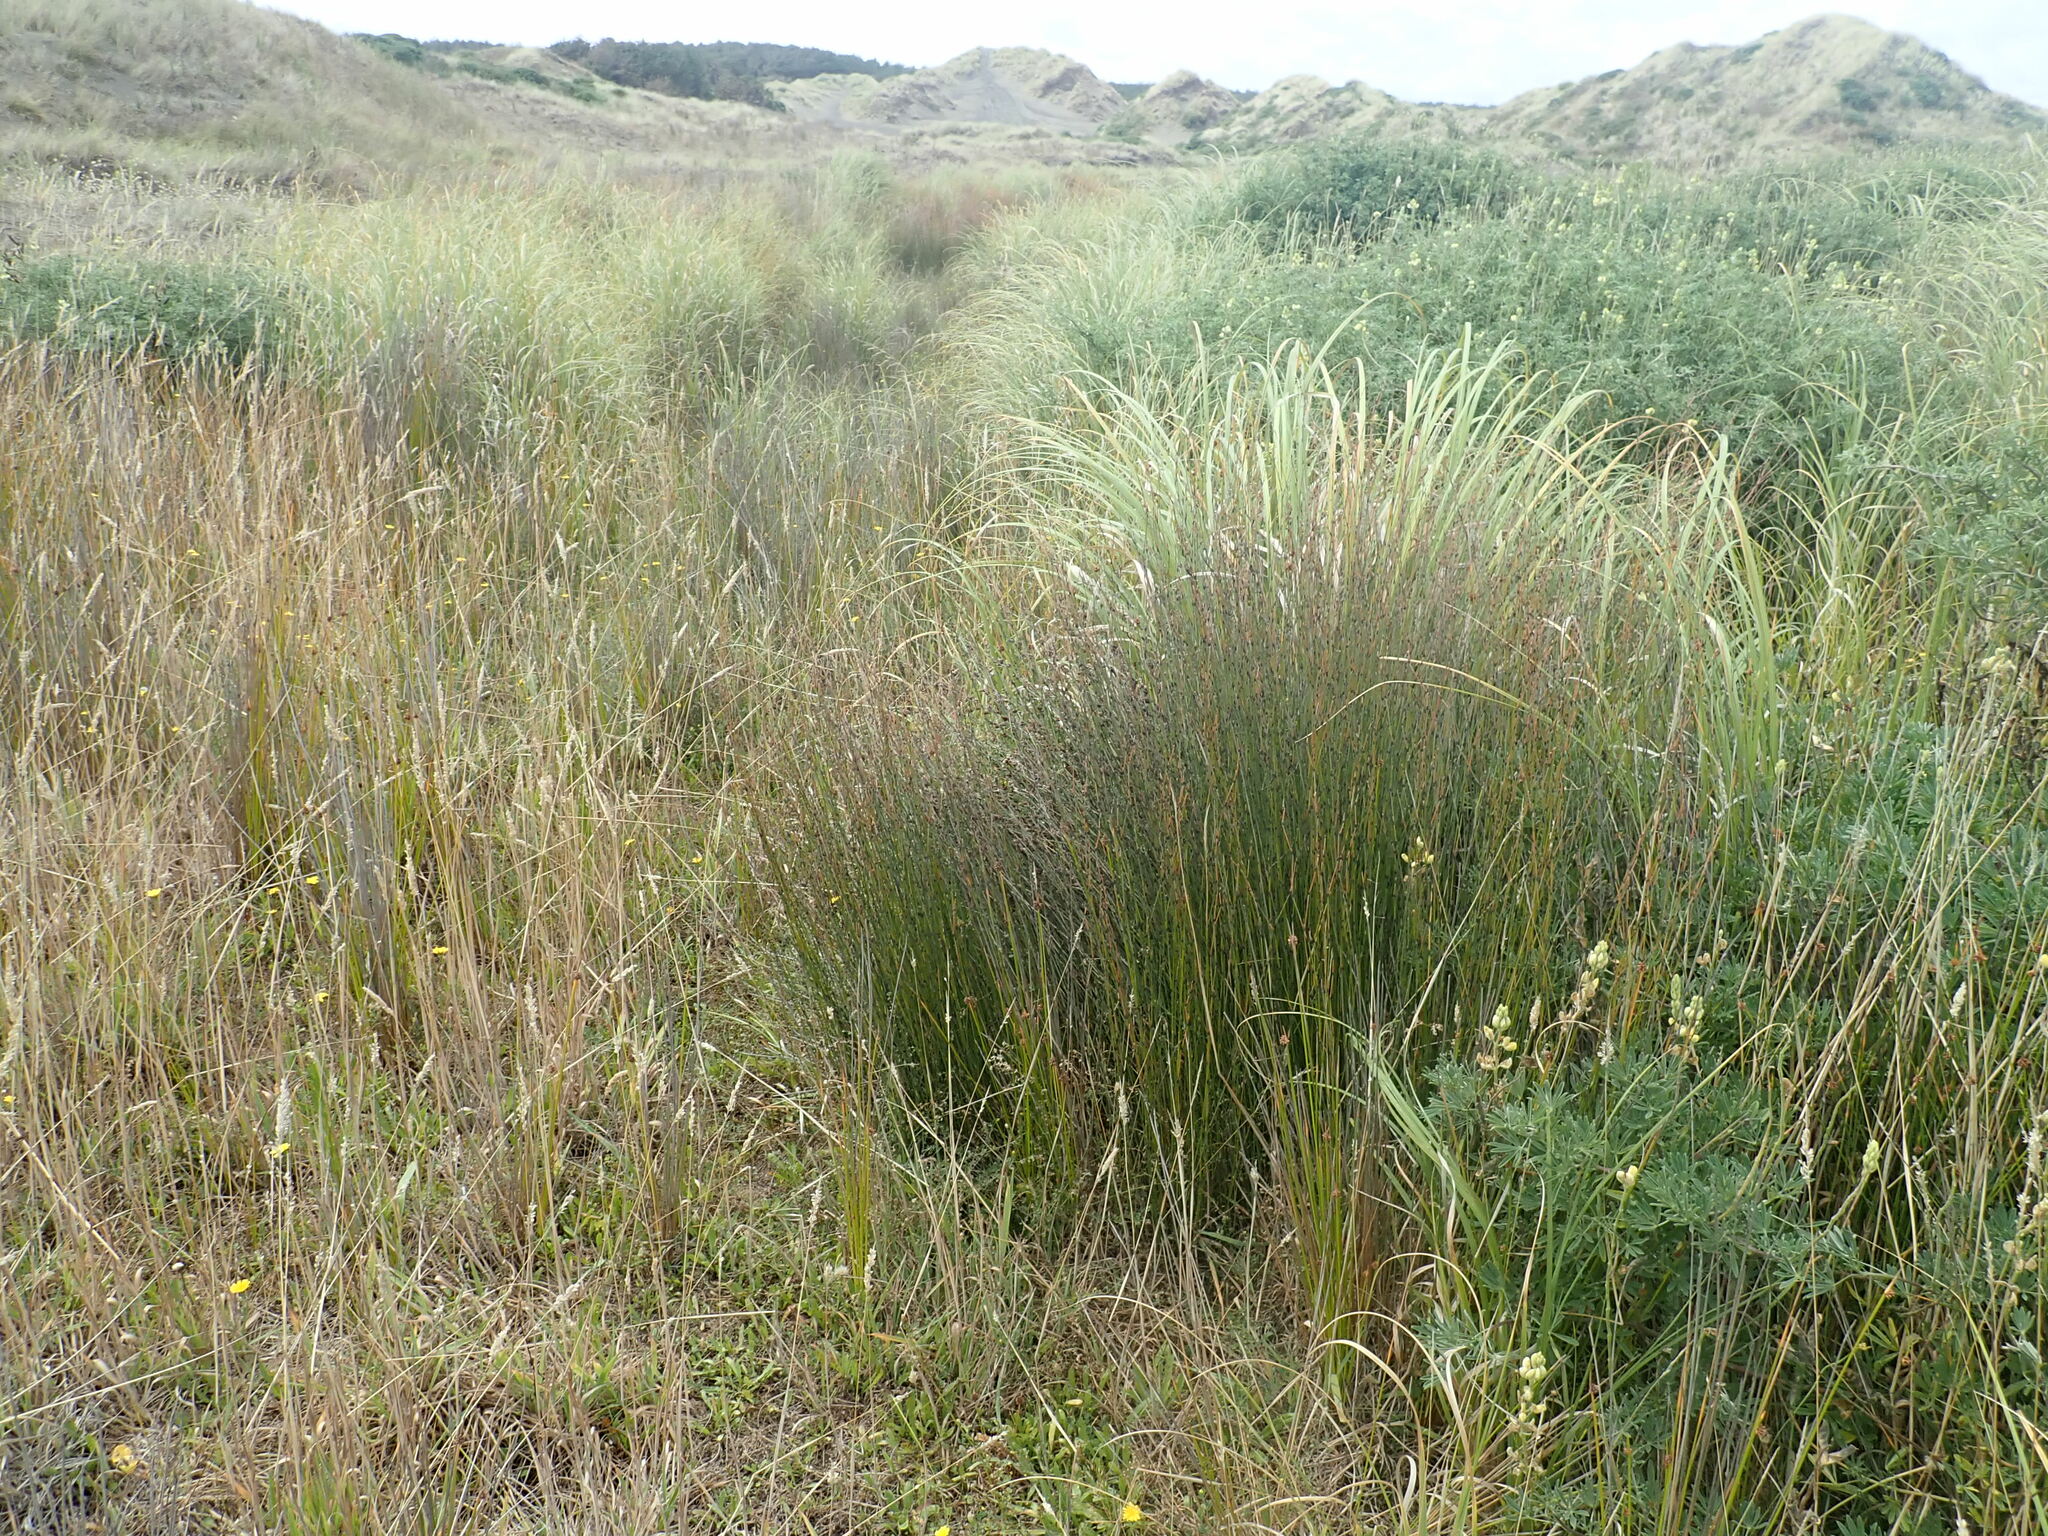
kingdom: Plantae
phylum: Tracheophyta
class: Liliopsida
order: Poales
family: Restionaceae
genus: Apodasmia
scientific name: Apodasmia similis
